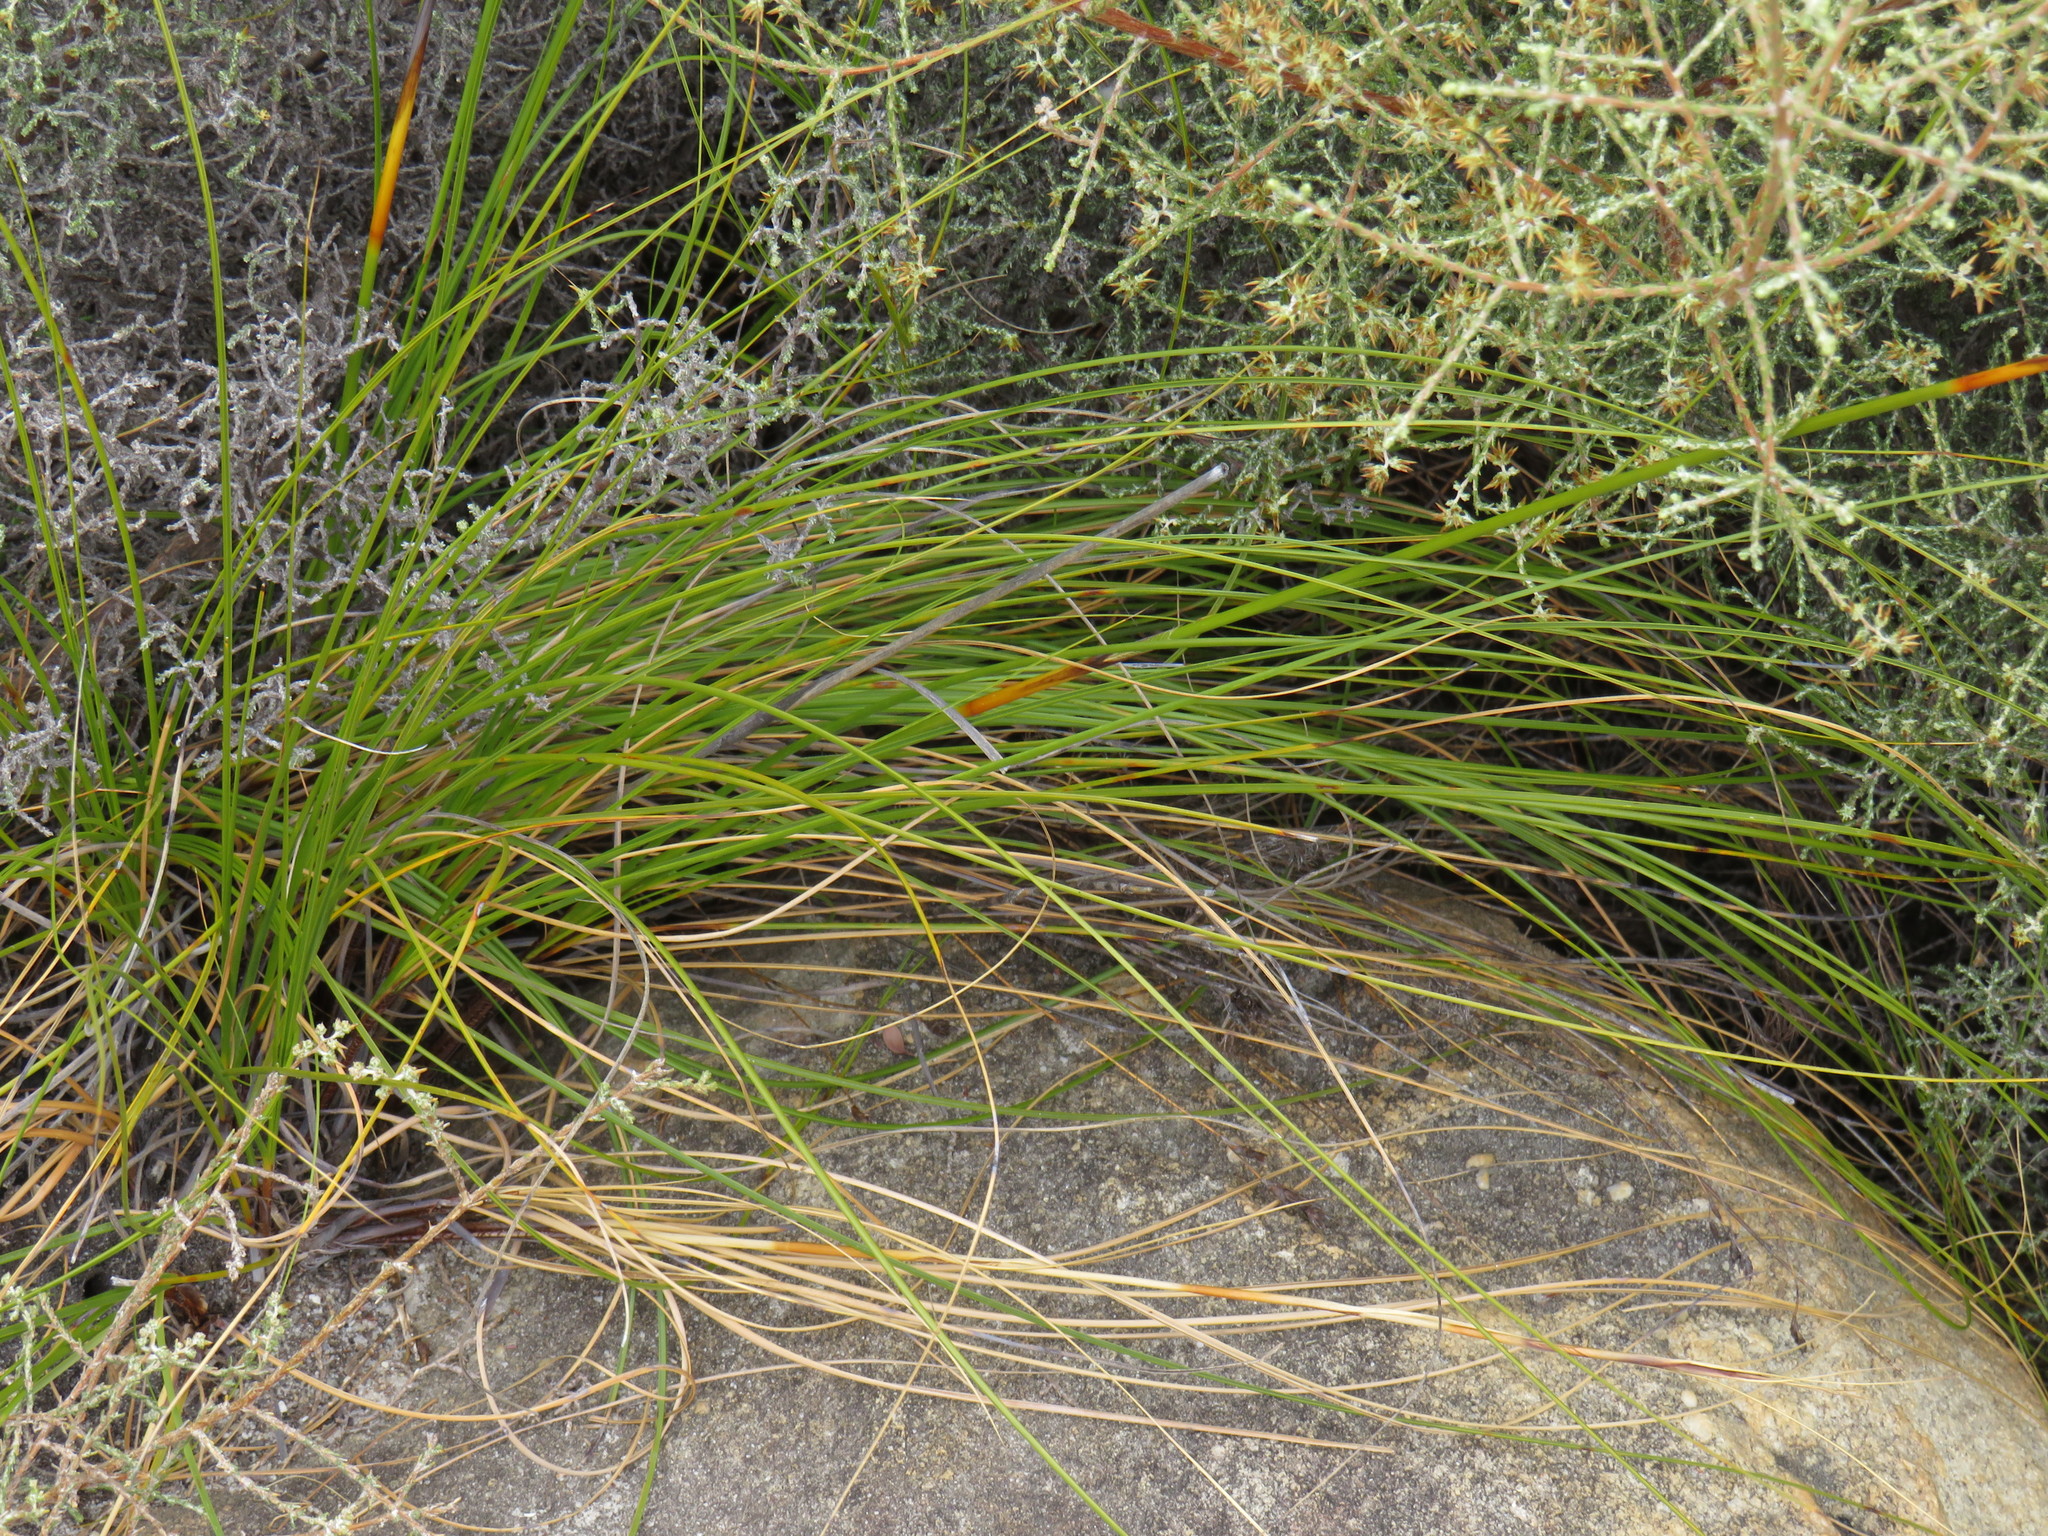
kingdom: Plantae
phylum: Tracheophyta
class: Liliopsida
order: Poales
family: Cyperaceae
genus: Tetraria
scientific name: Tetraria ustulata
